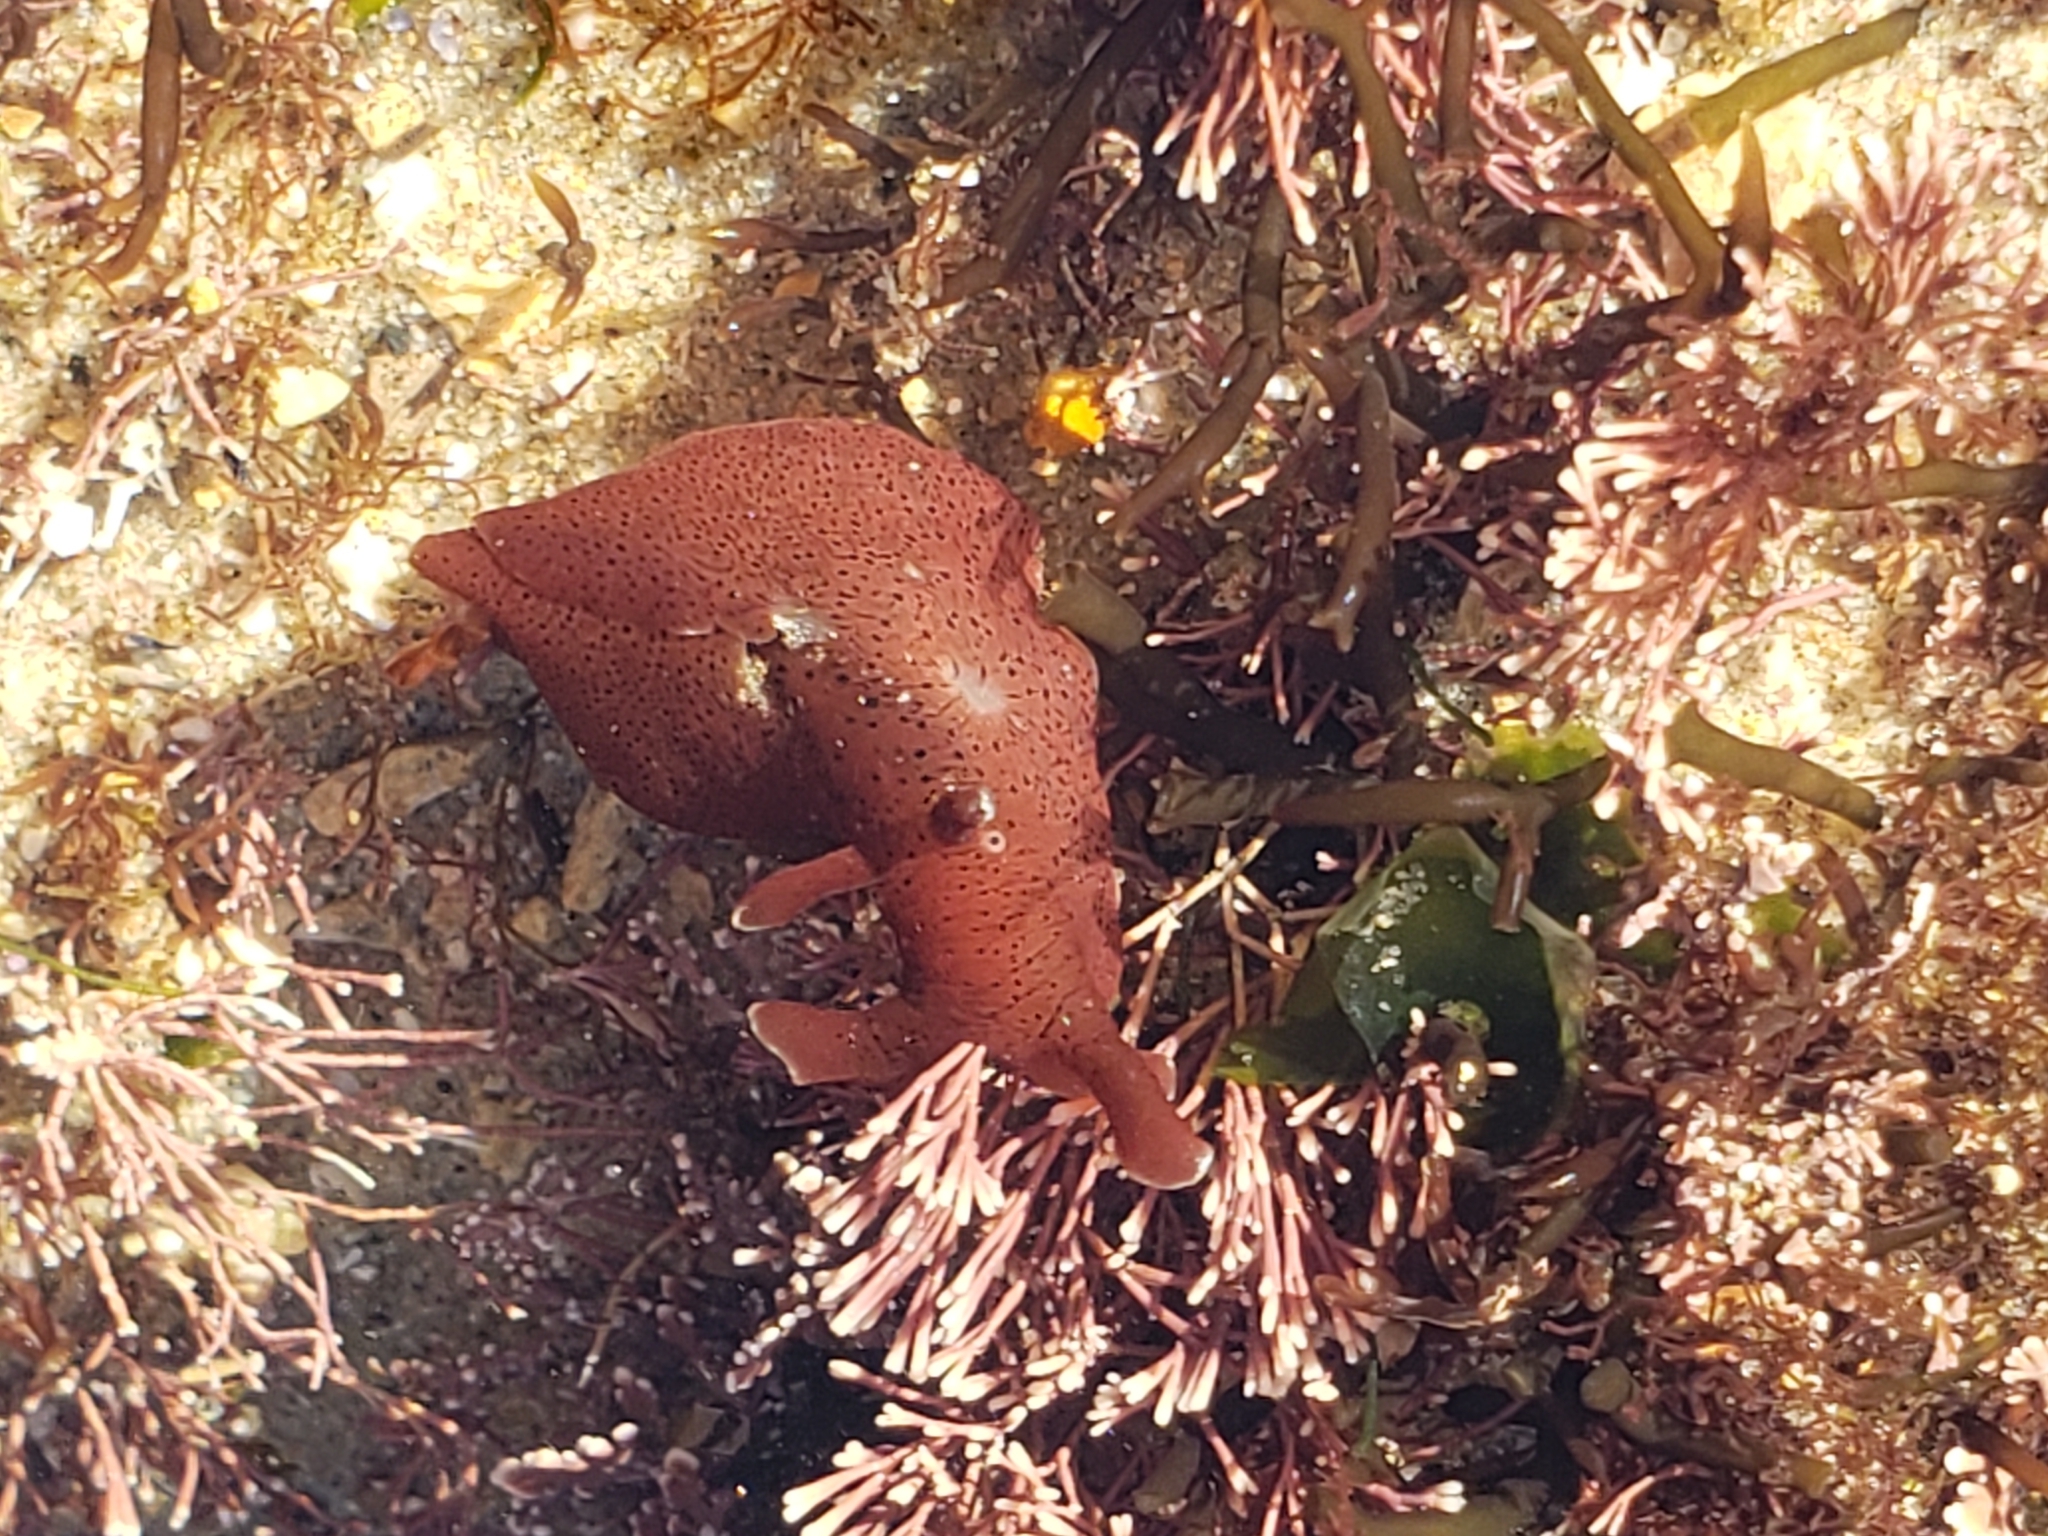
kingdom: Animalia
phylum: Mollusca
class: Gastropoda
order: Aplysiida
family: Aplysiidae
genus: Aplysia
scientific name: Aplysia californica
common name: California seahare
